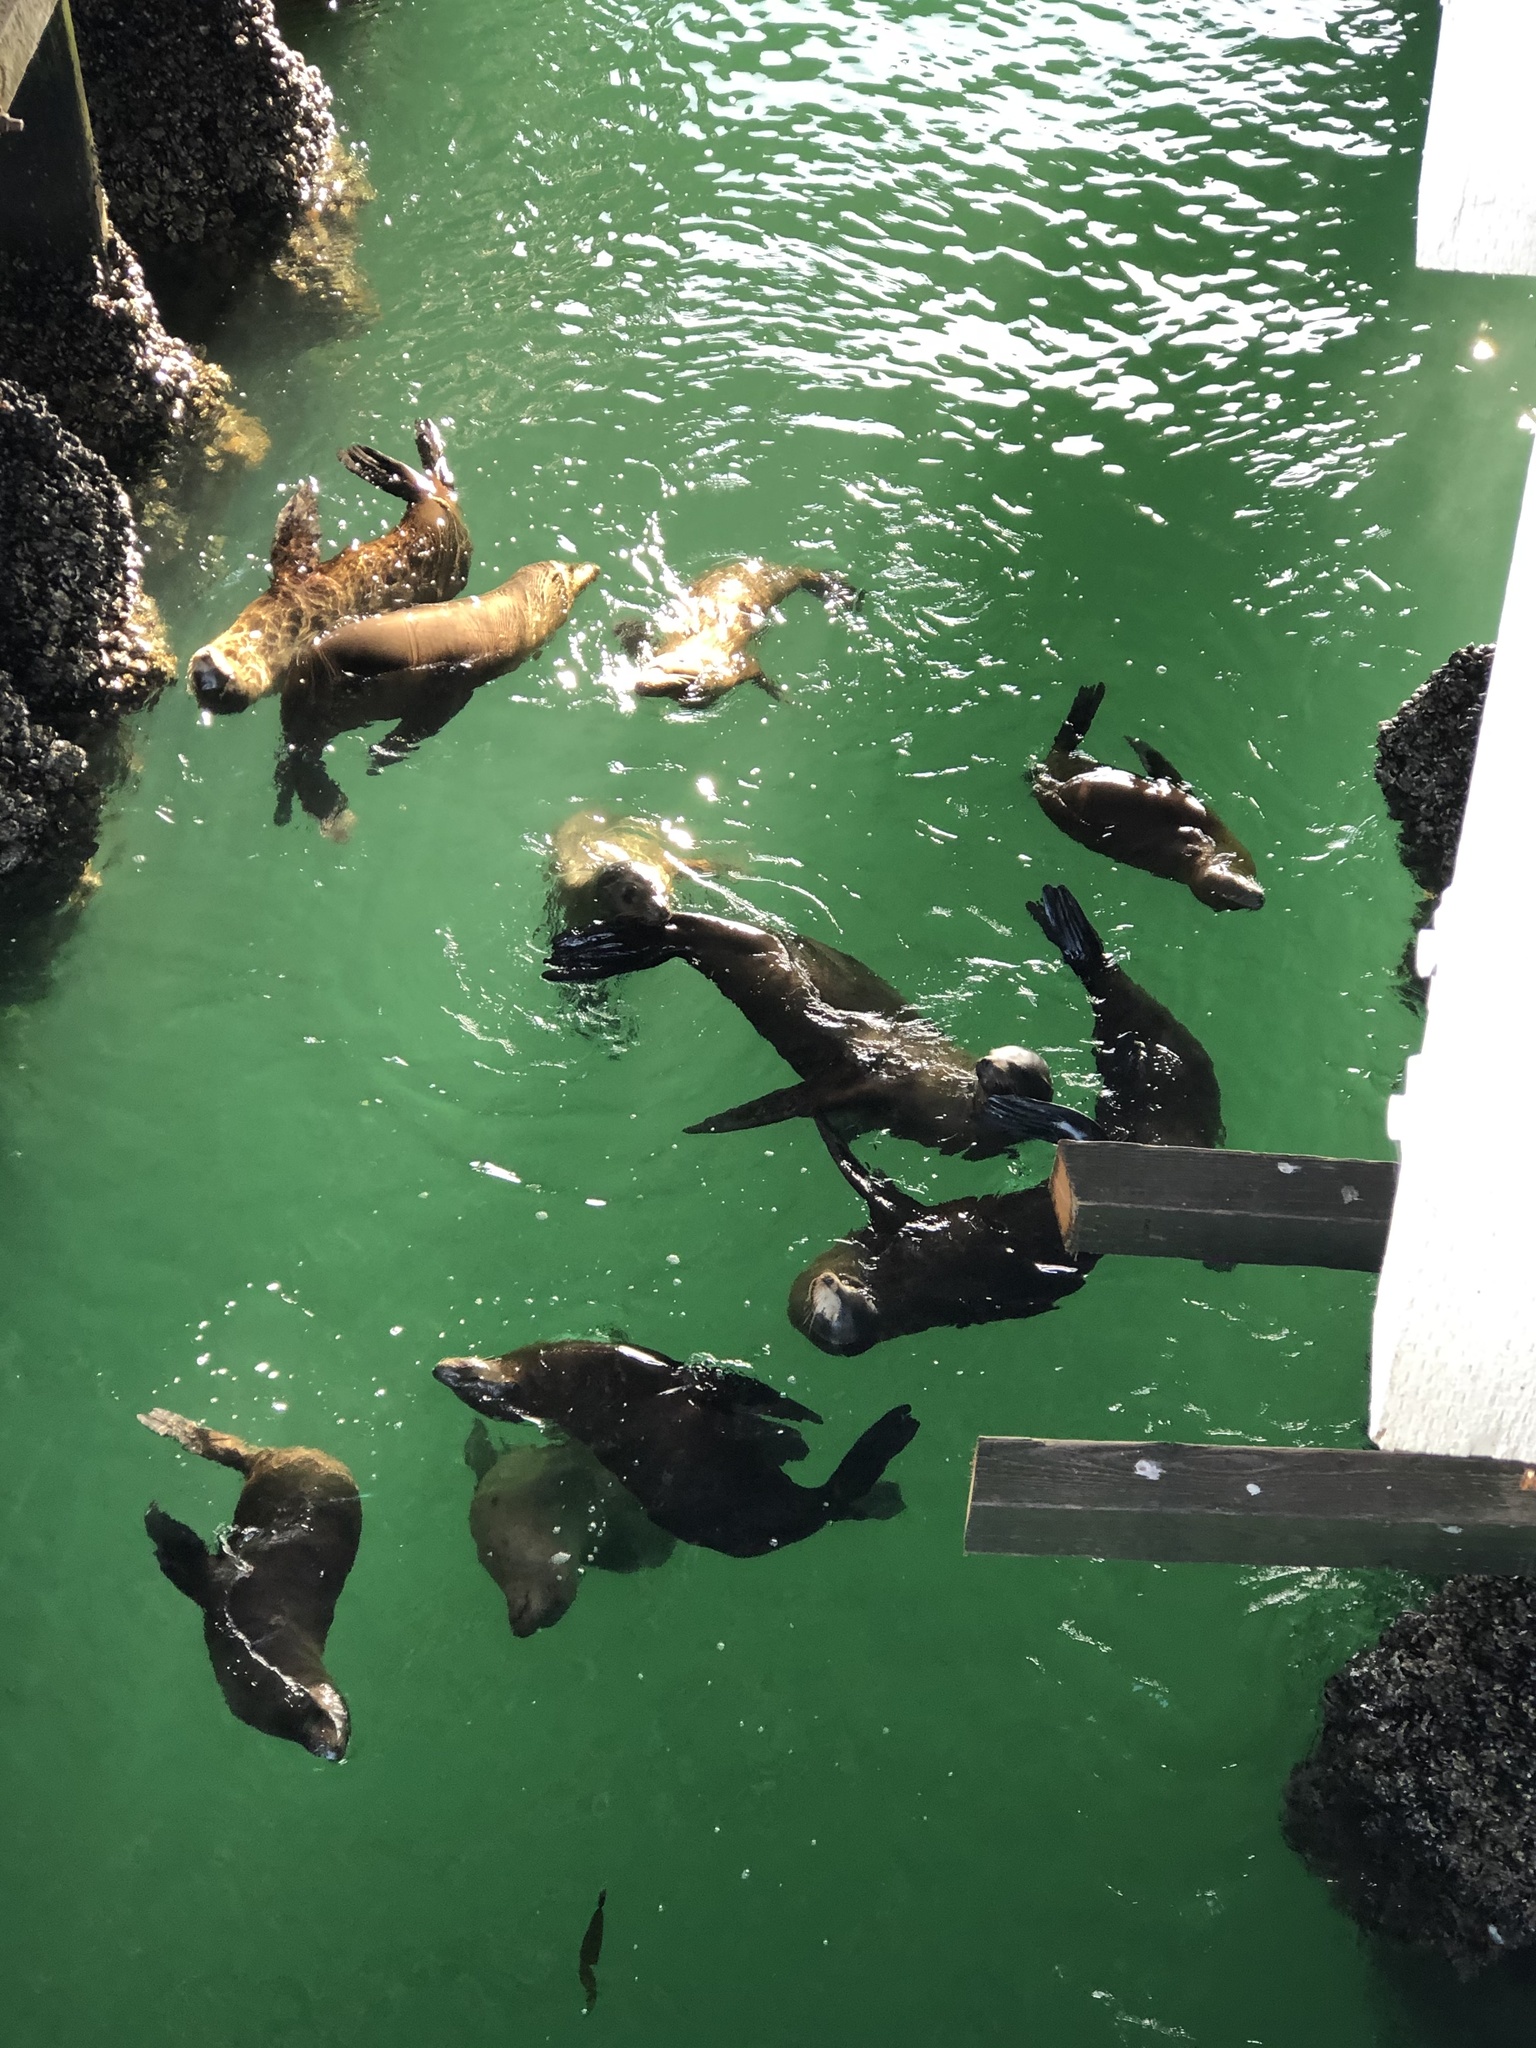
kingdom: Animalia
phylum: Chordata
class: Mammalia
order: Carnivora
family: Otariidae
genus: Zalophus
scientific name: Zalophus californianus
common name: California sea lion
